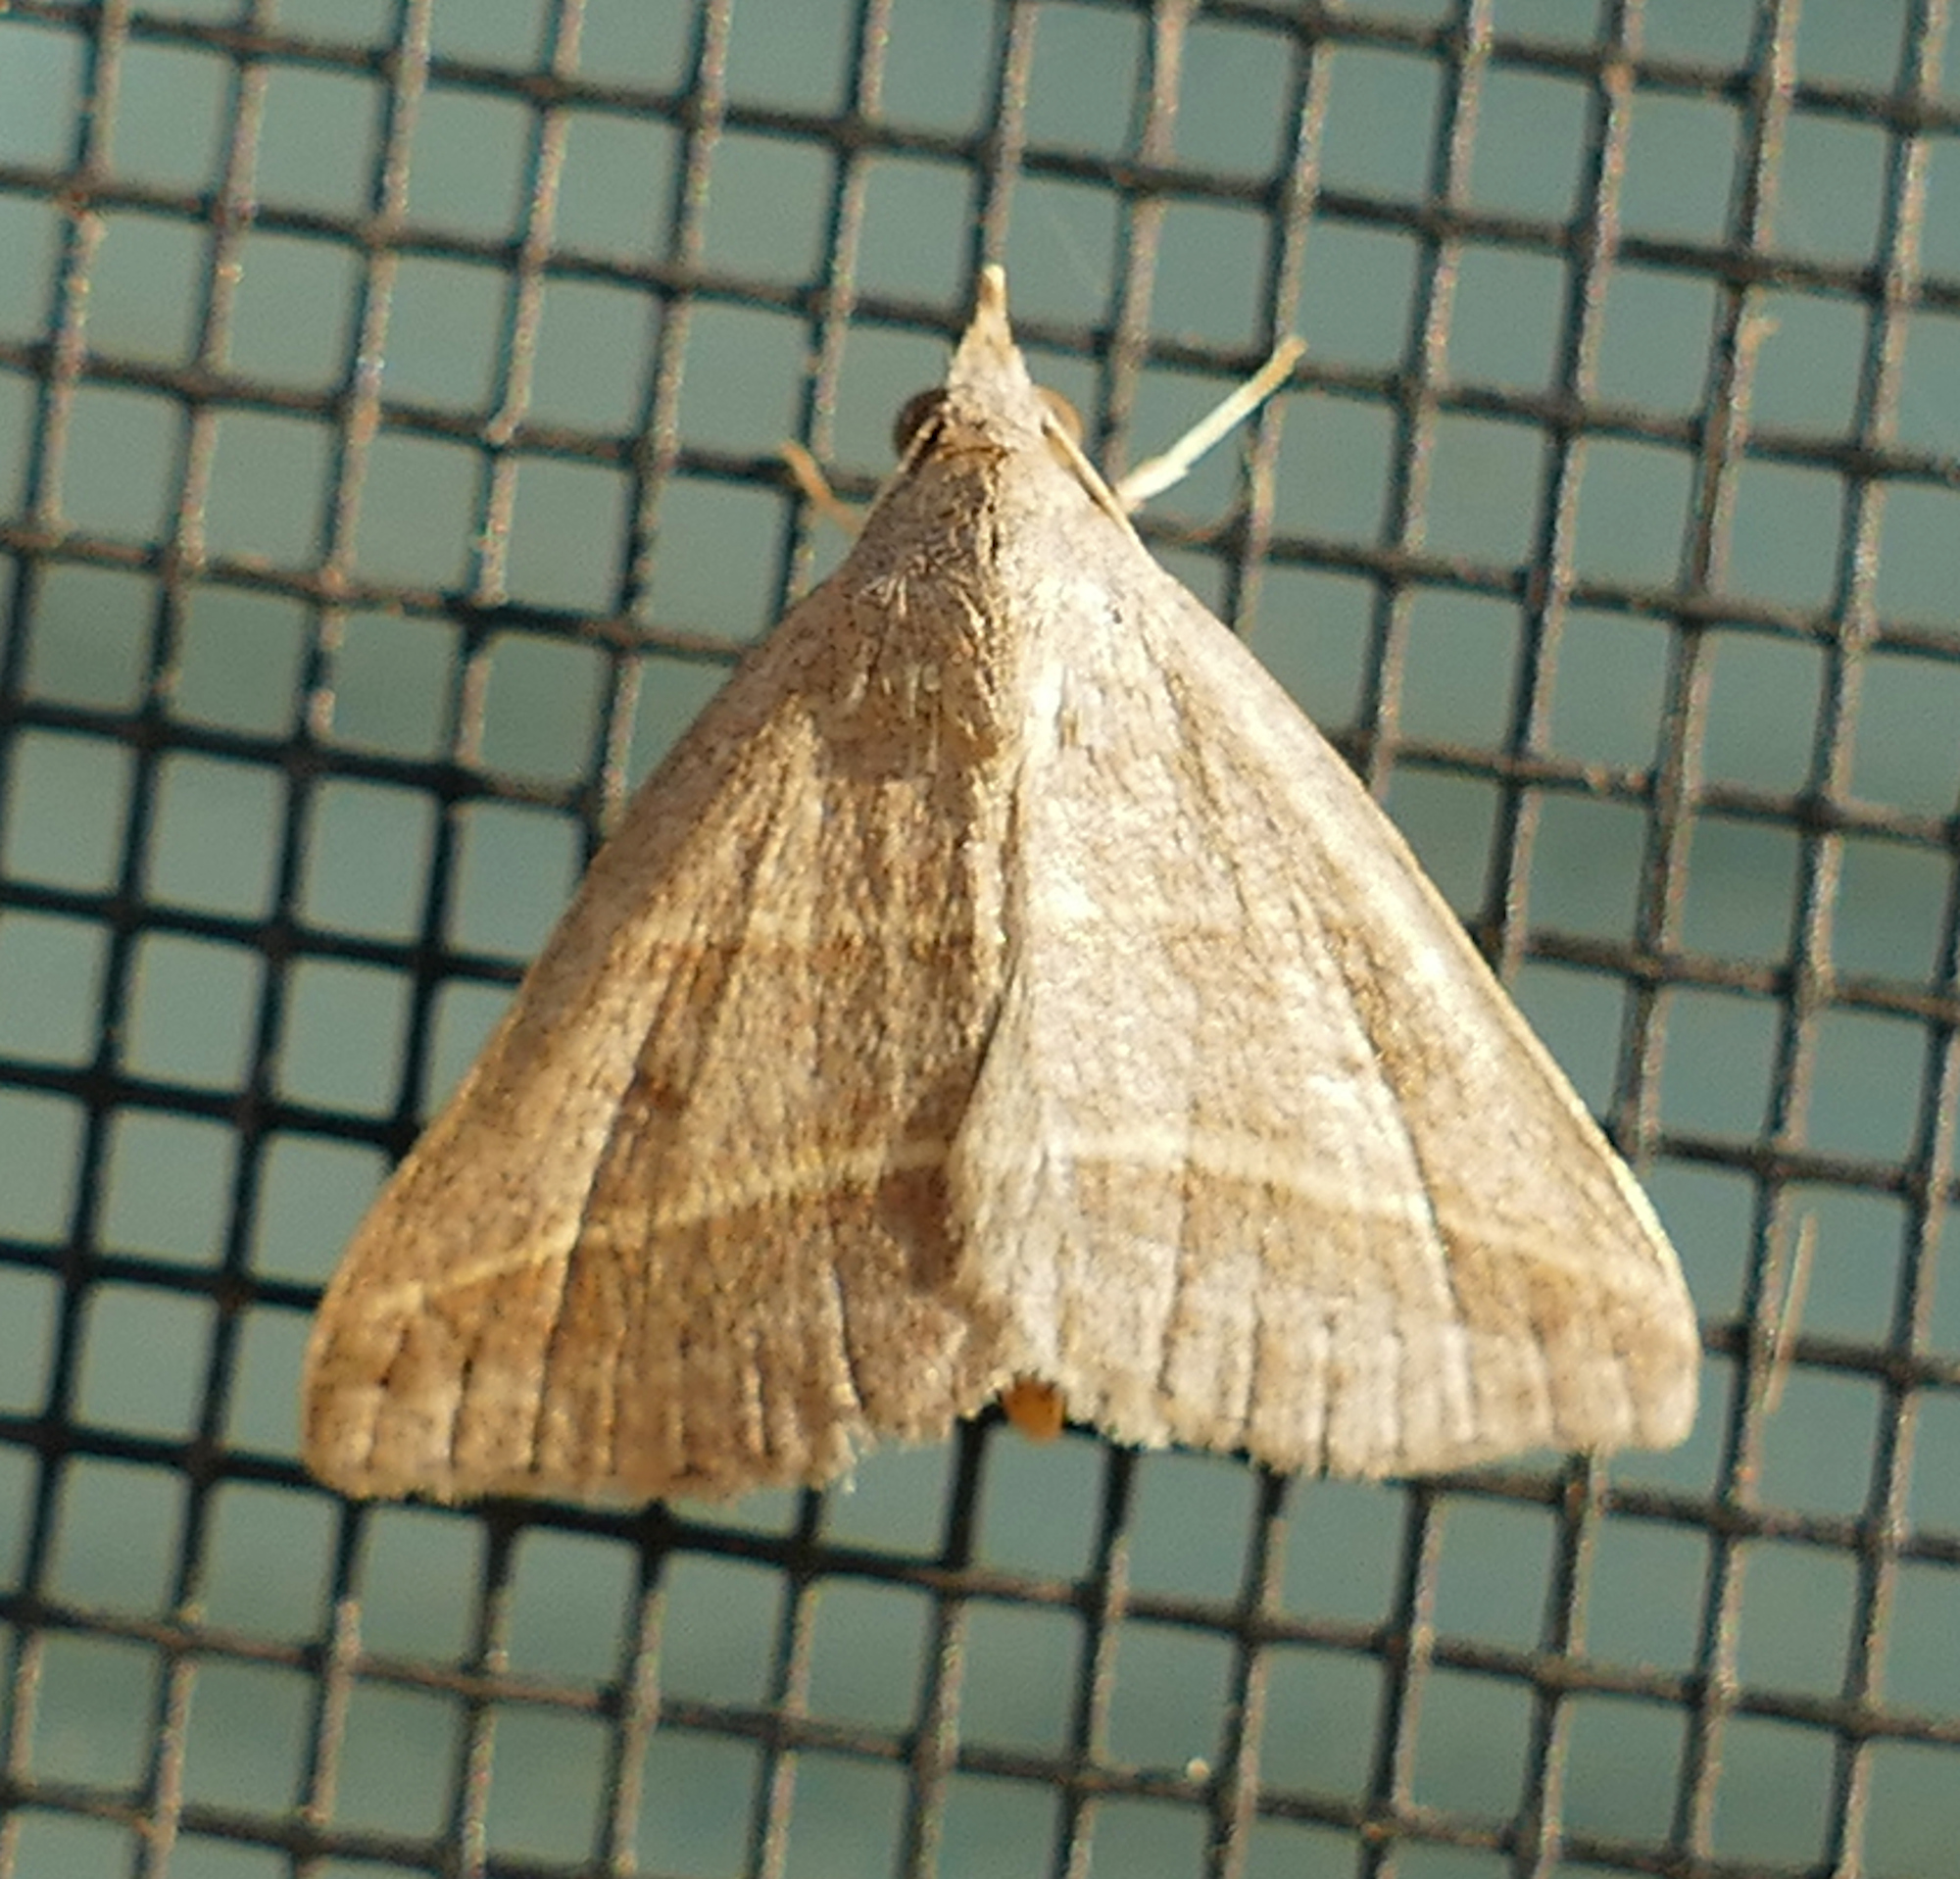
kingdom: Animalia
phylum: Arthropoda
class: Insecta
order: Lepidoptera
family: Erebidae
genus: Hemeroplanis
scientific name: Hemeroplanis parallela
